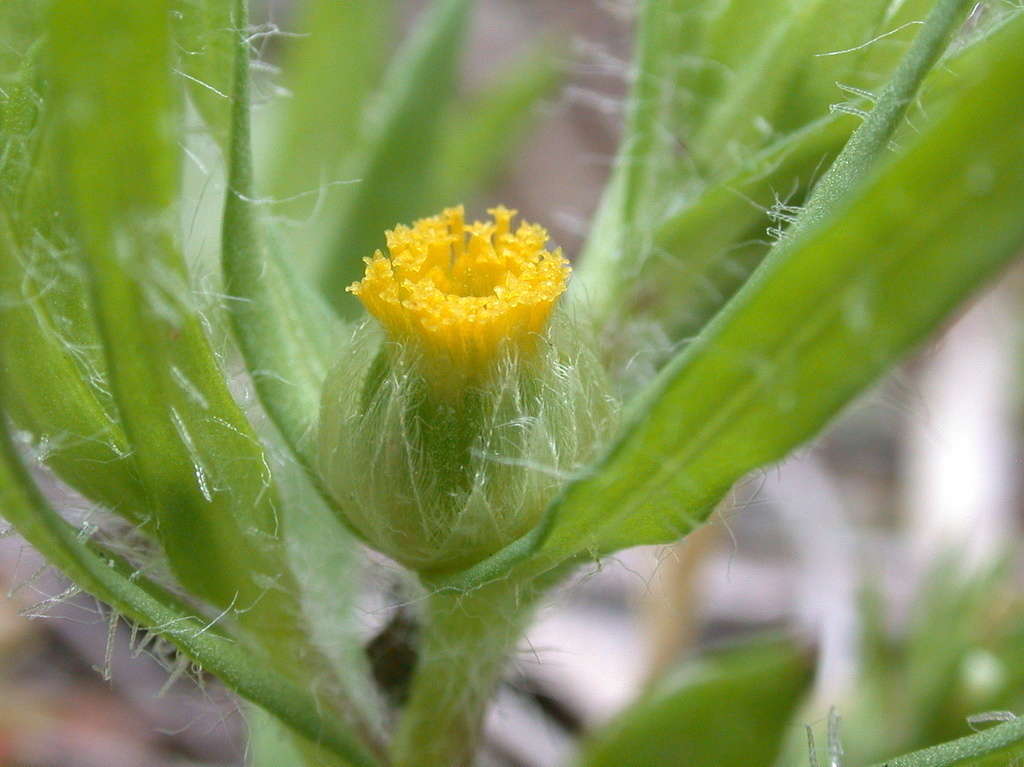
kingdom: Plantae
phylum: Tracheophyta
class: Magnoliopsida
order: Asterales
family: Asteraceae
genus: Triptilodiscus
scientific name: Triptilodiscus pygmaeus
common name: Common sunray
